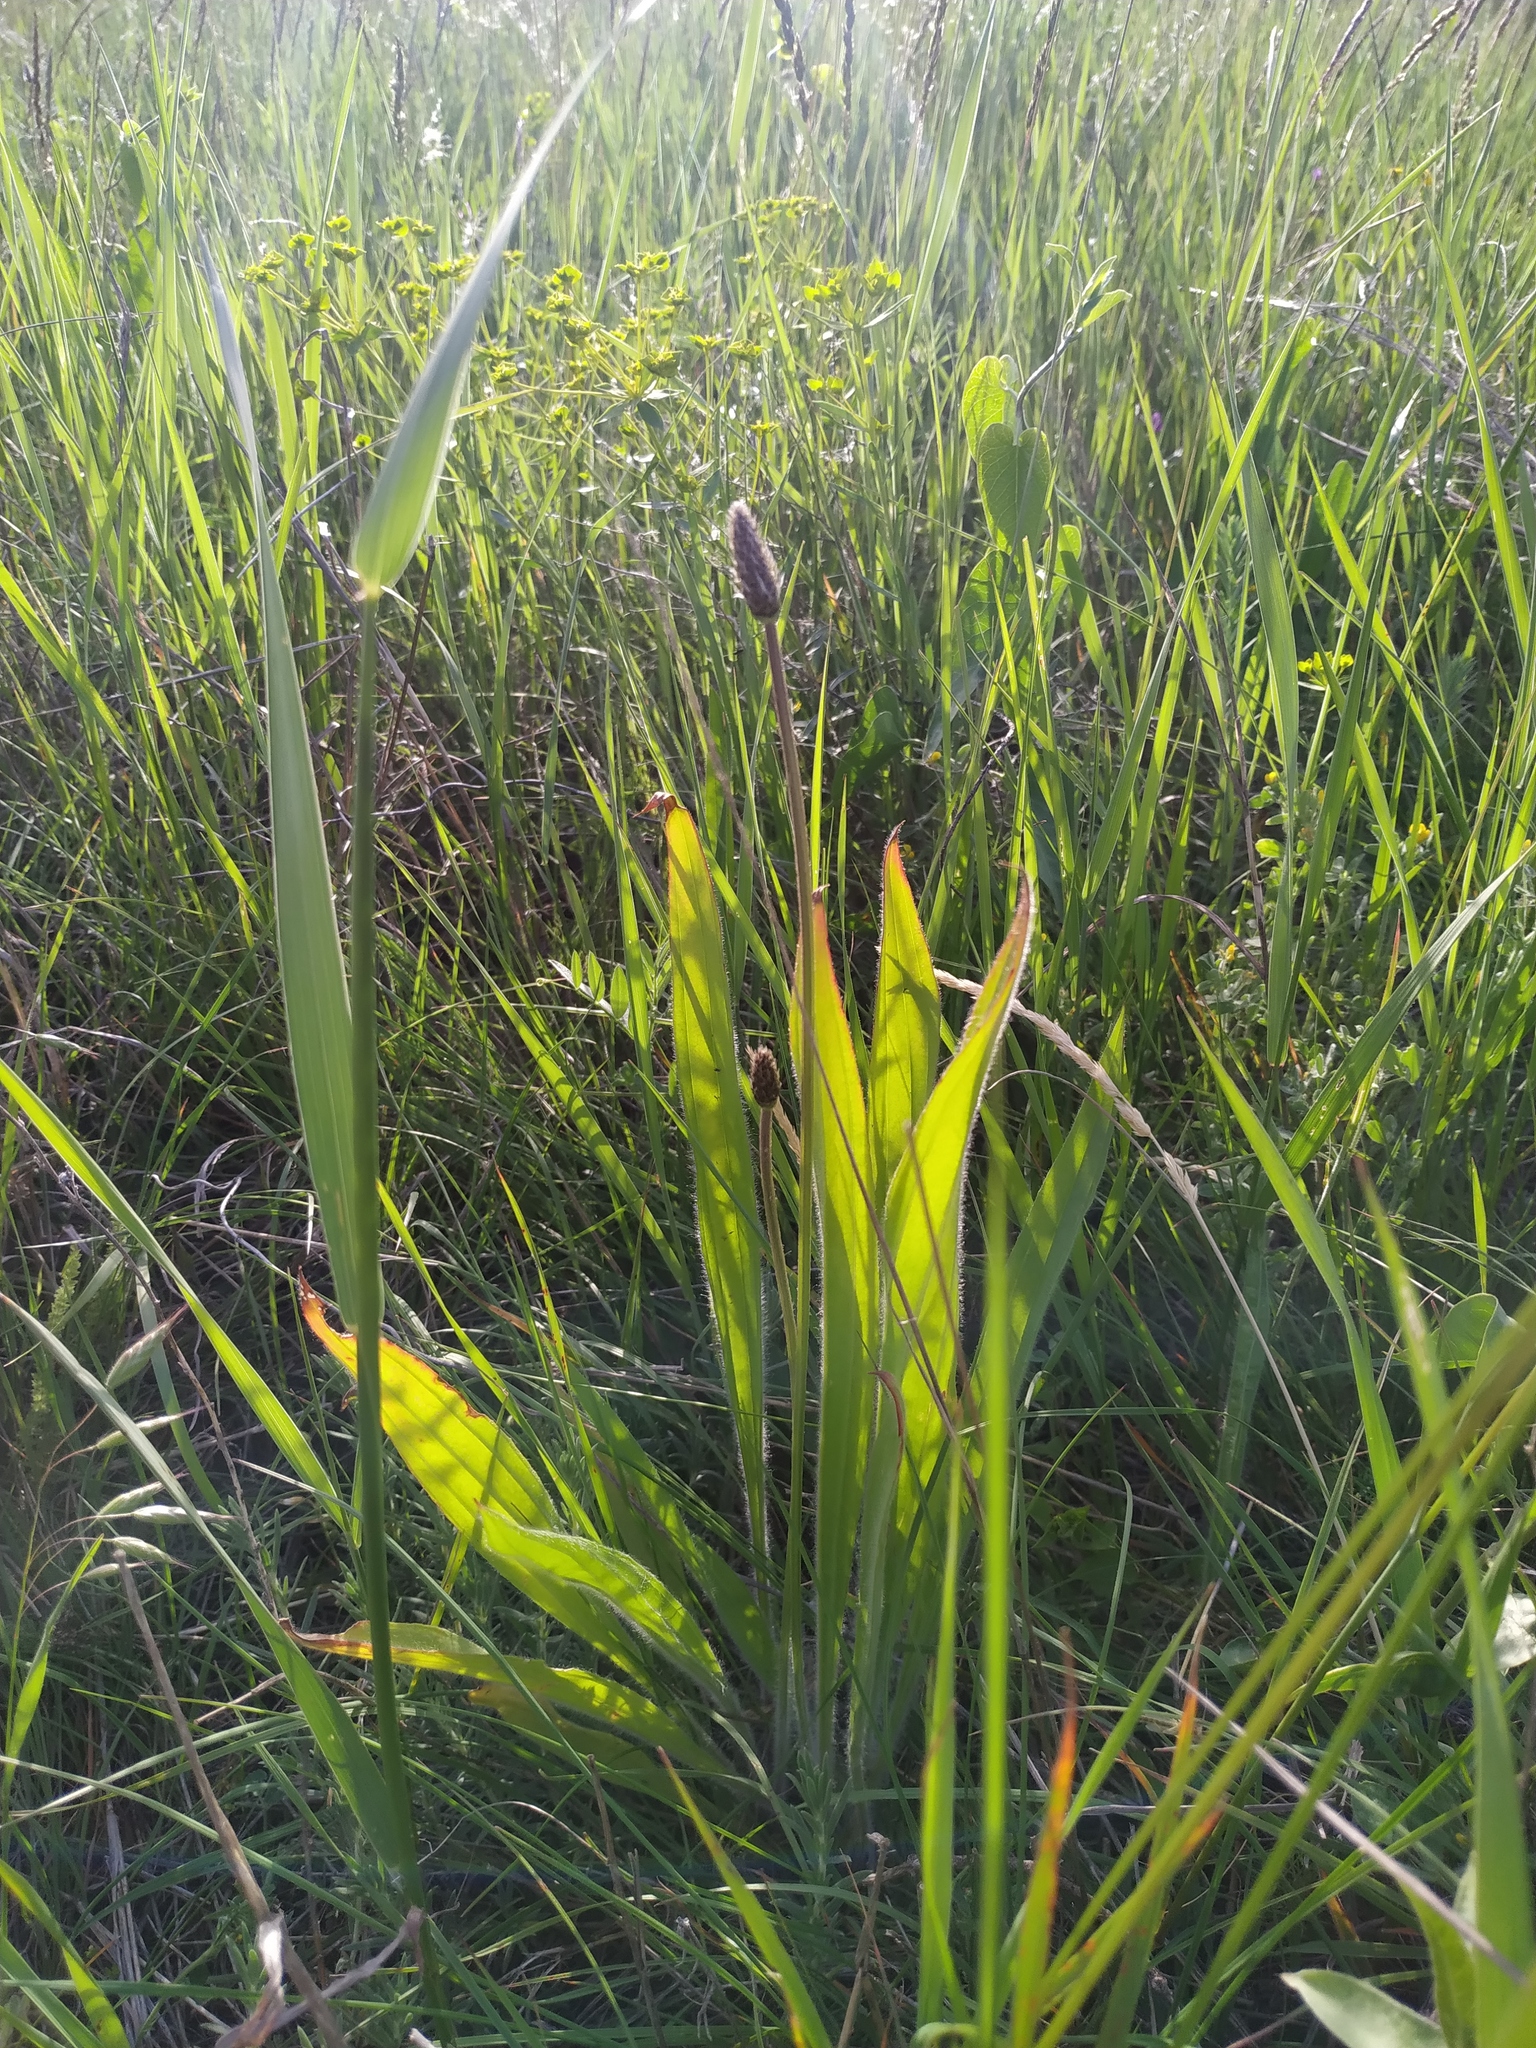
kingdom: Plantae
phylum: Tracheophyta
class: Magnoliopsida
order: Lamiales
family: Plantaginaceae
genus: Plantago
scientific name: Plantago lanceolata
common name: Ribwort plantain
